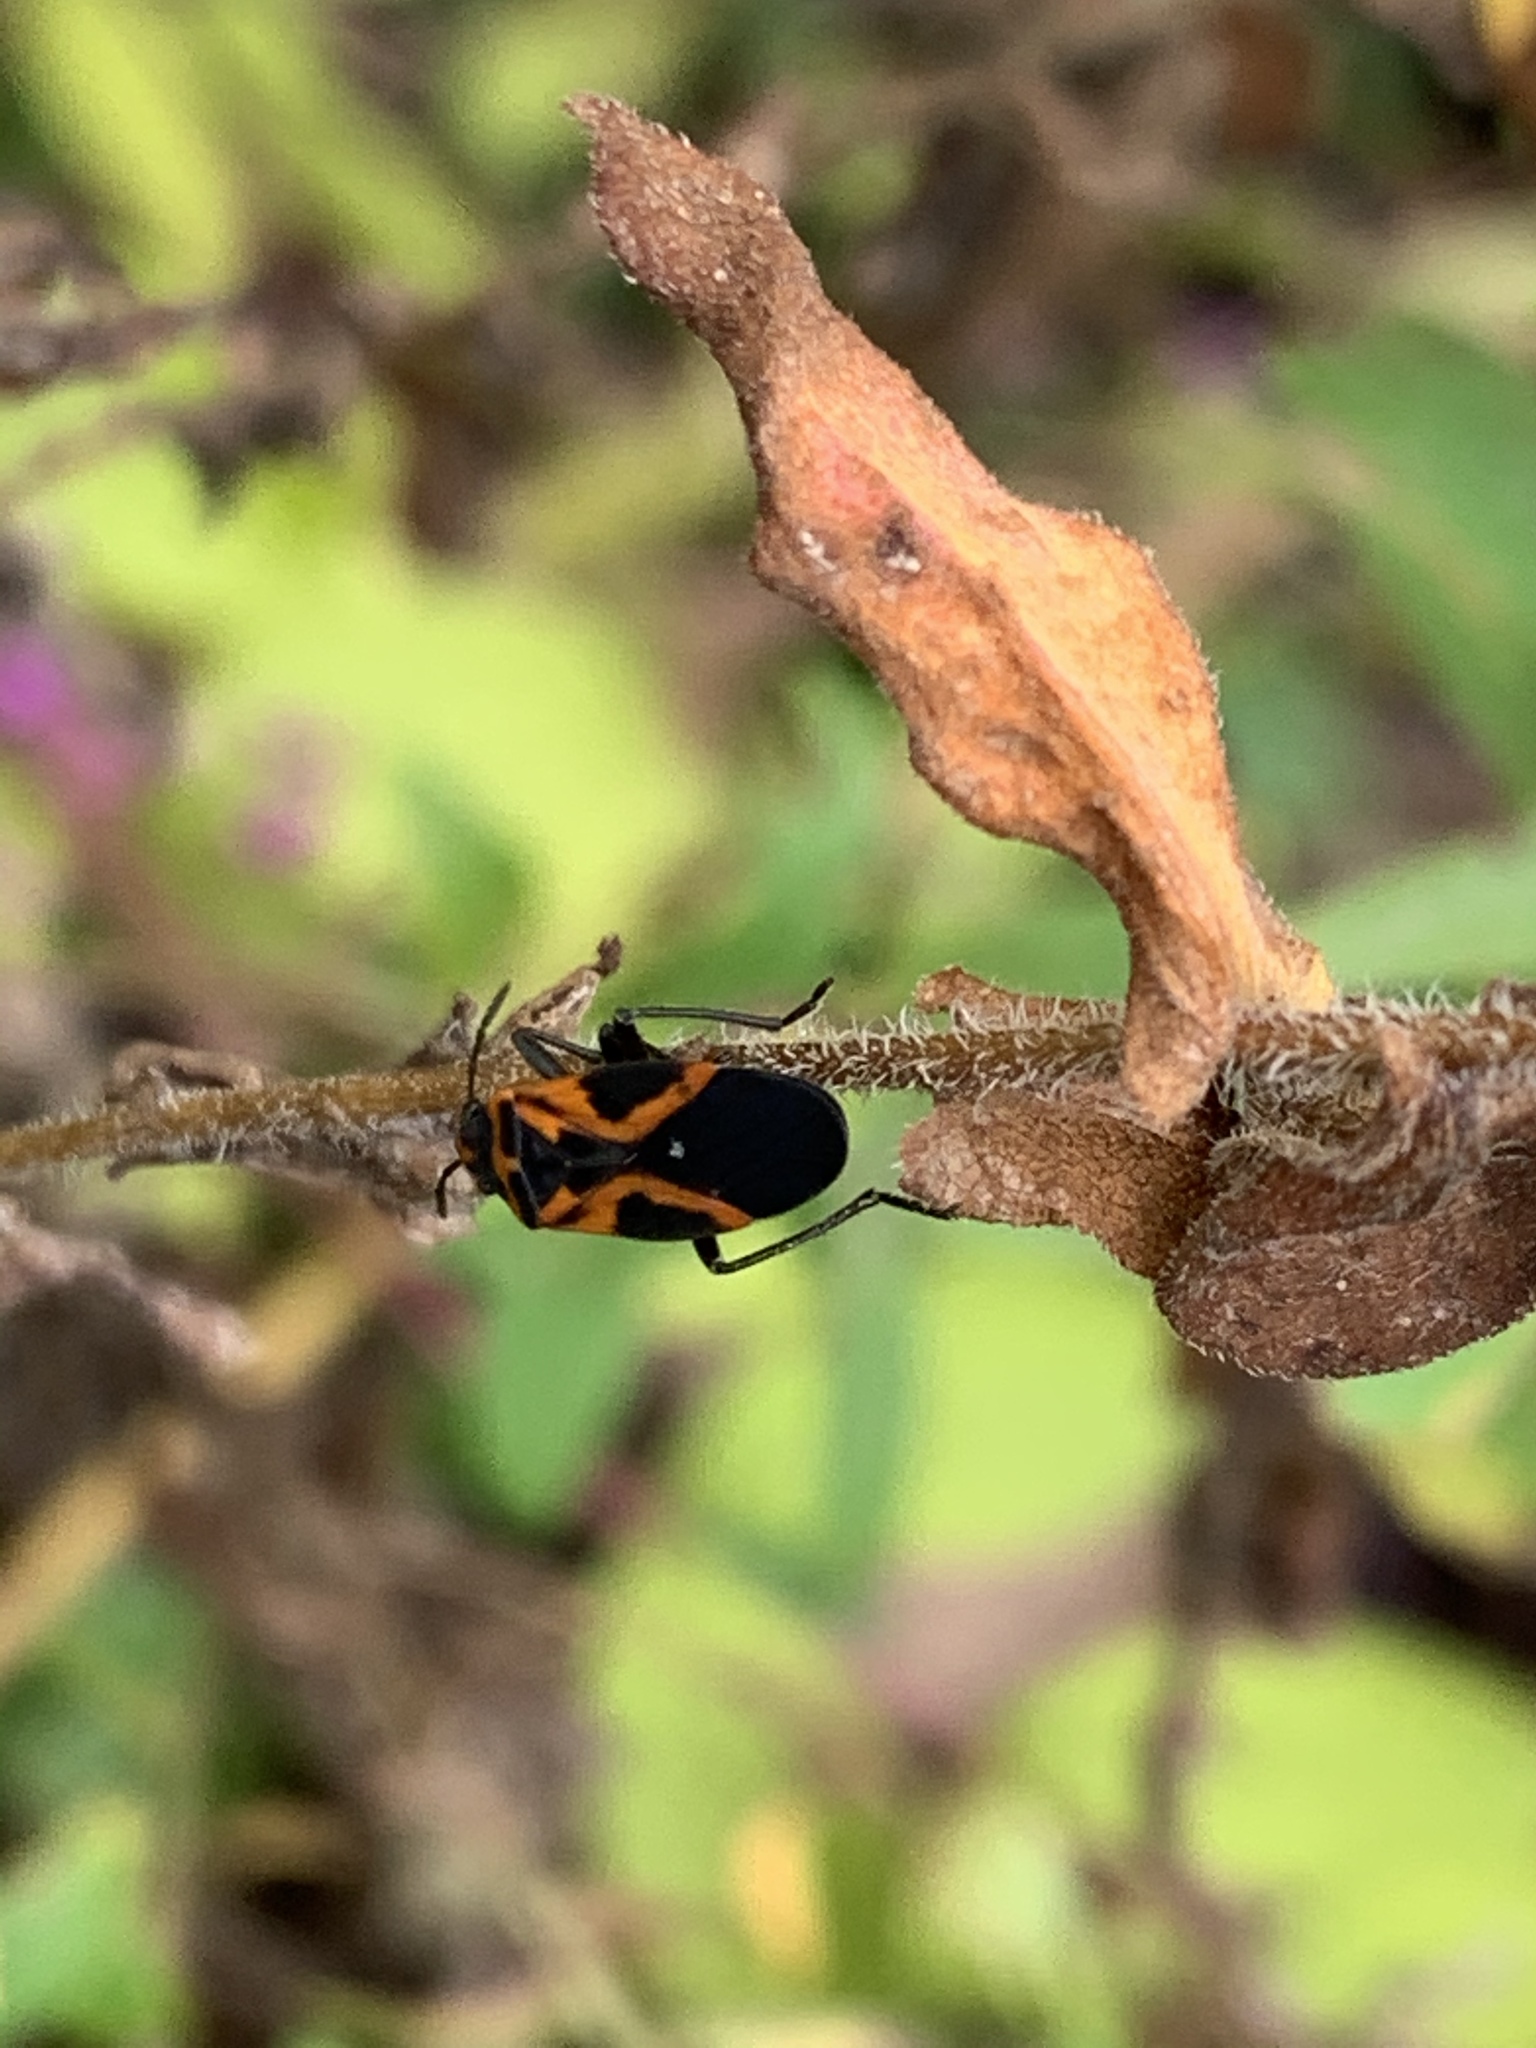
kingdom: Animalia
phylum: Arthropoda
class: Insecta
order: Hemiptera
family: Lygaeidae
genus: Lygaeus
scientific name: Lygaeus turcicus
